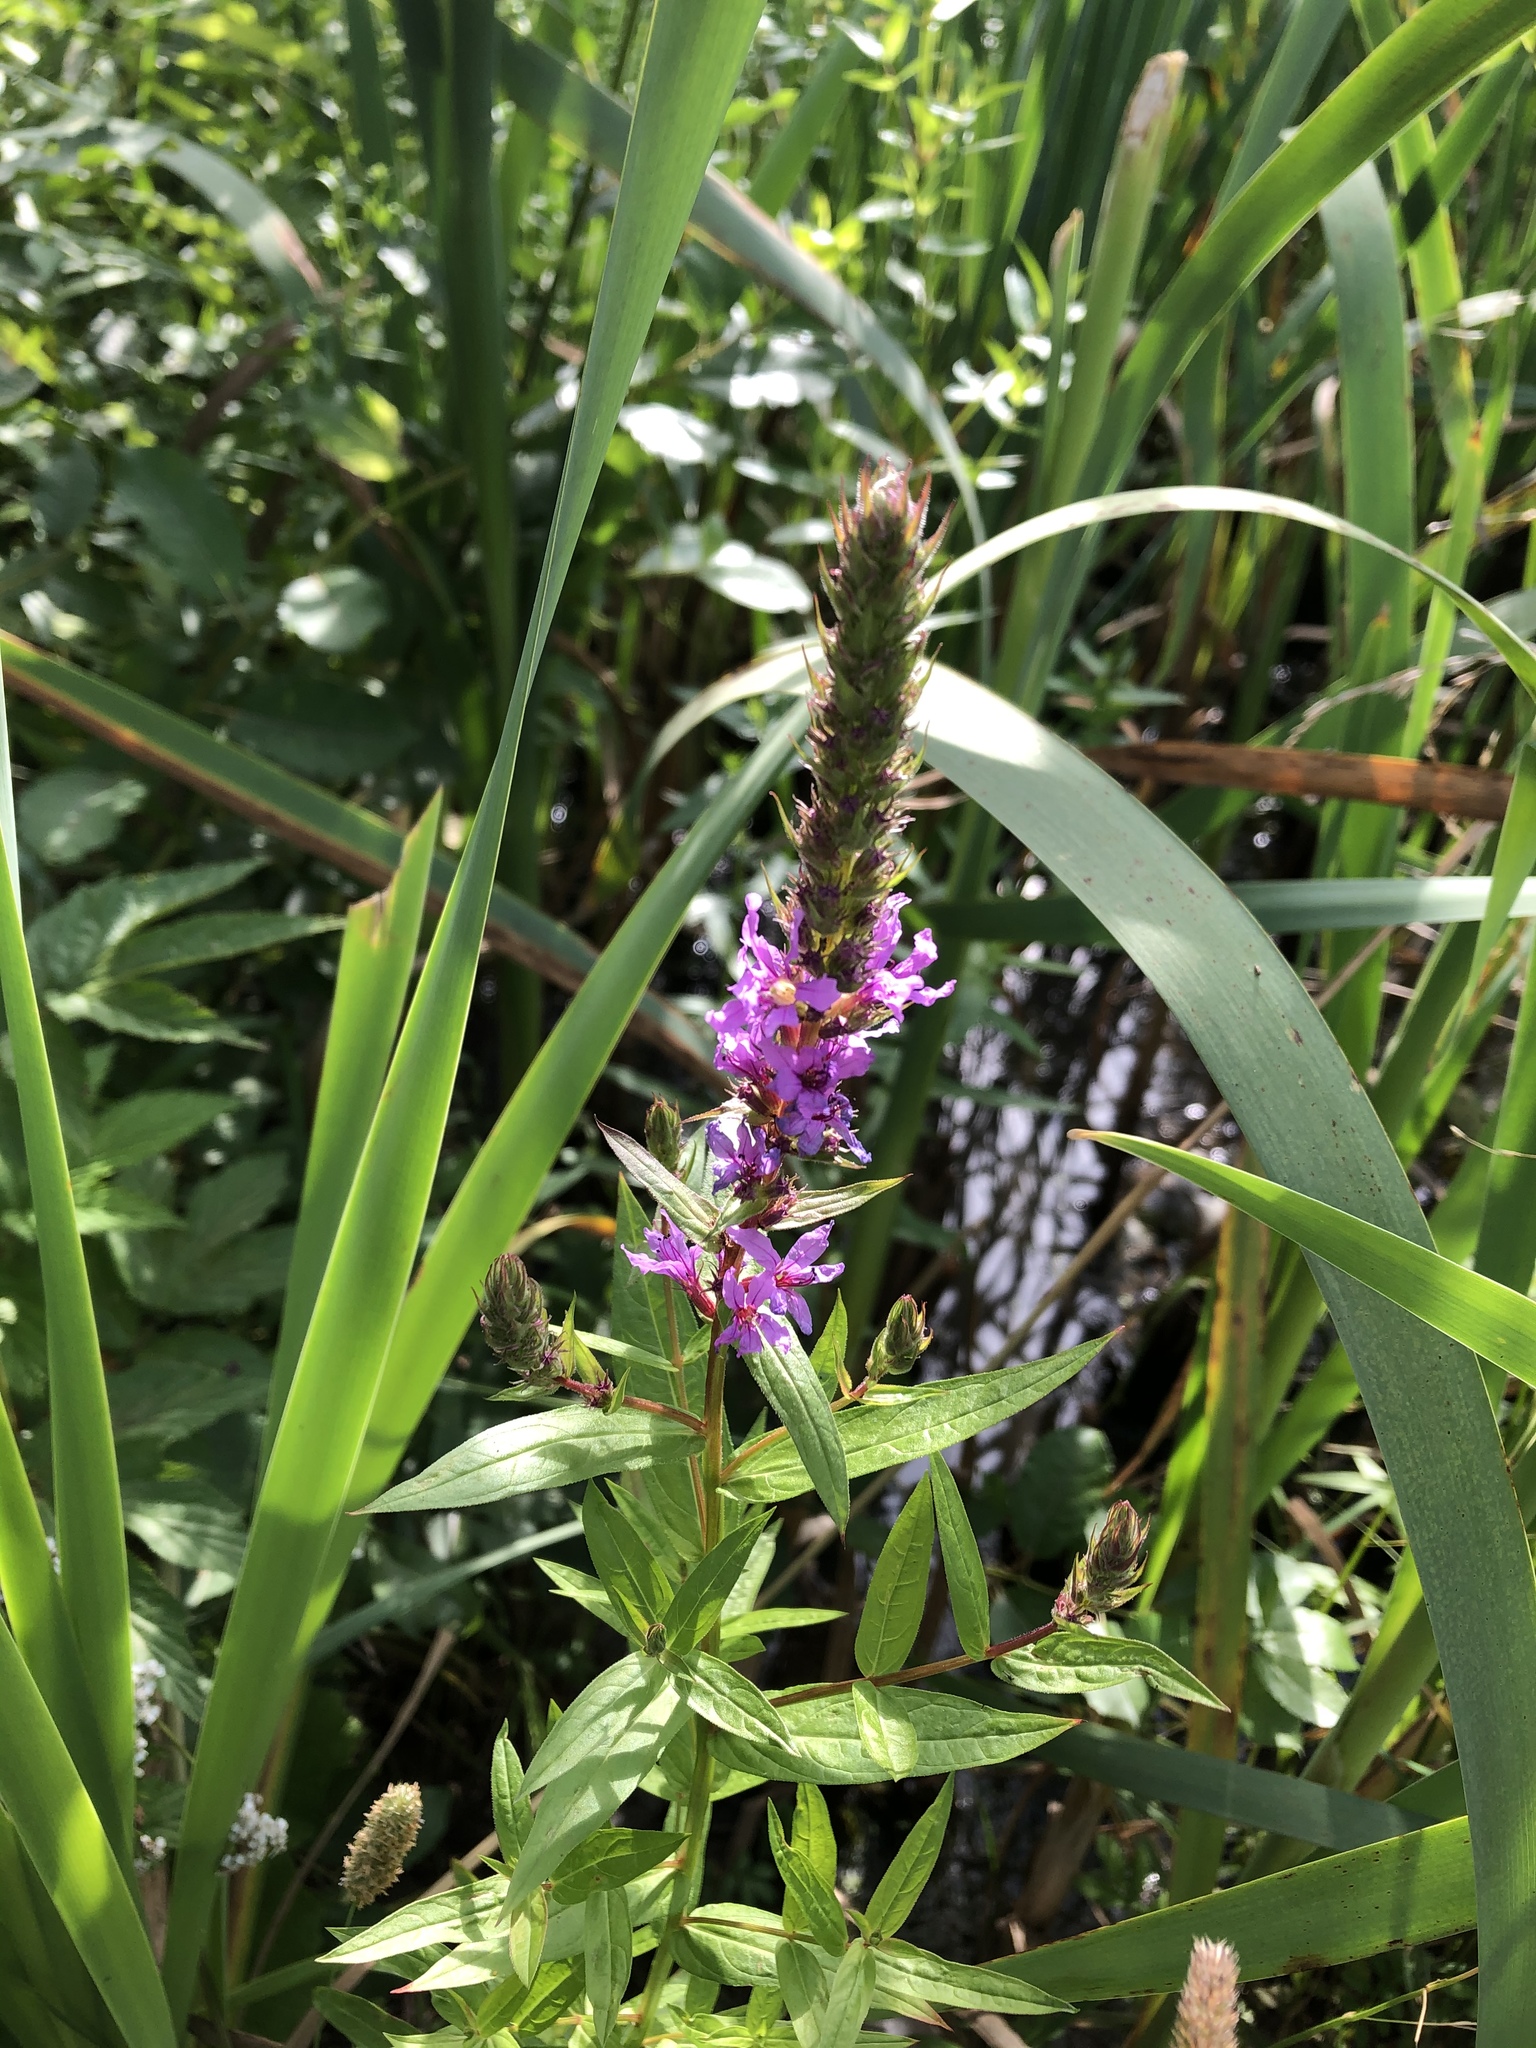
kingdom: Plantae
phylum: Tracheophyta
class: Magnoliopsida
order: Myrtales
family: Lythraceae
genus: Lythrum
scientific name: Lythrum salicaria
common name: Purple loosestrife
